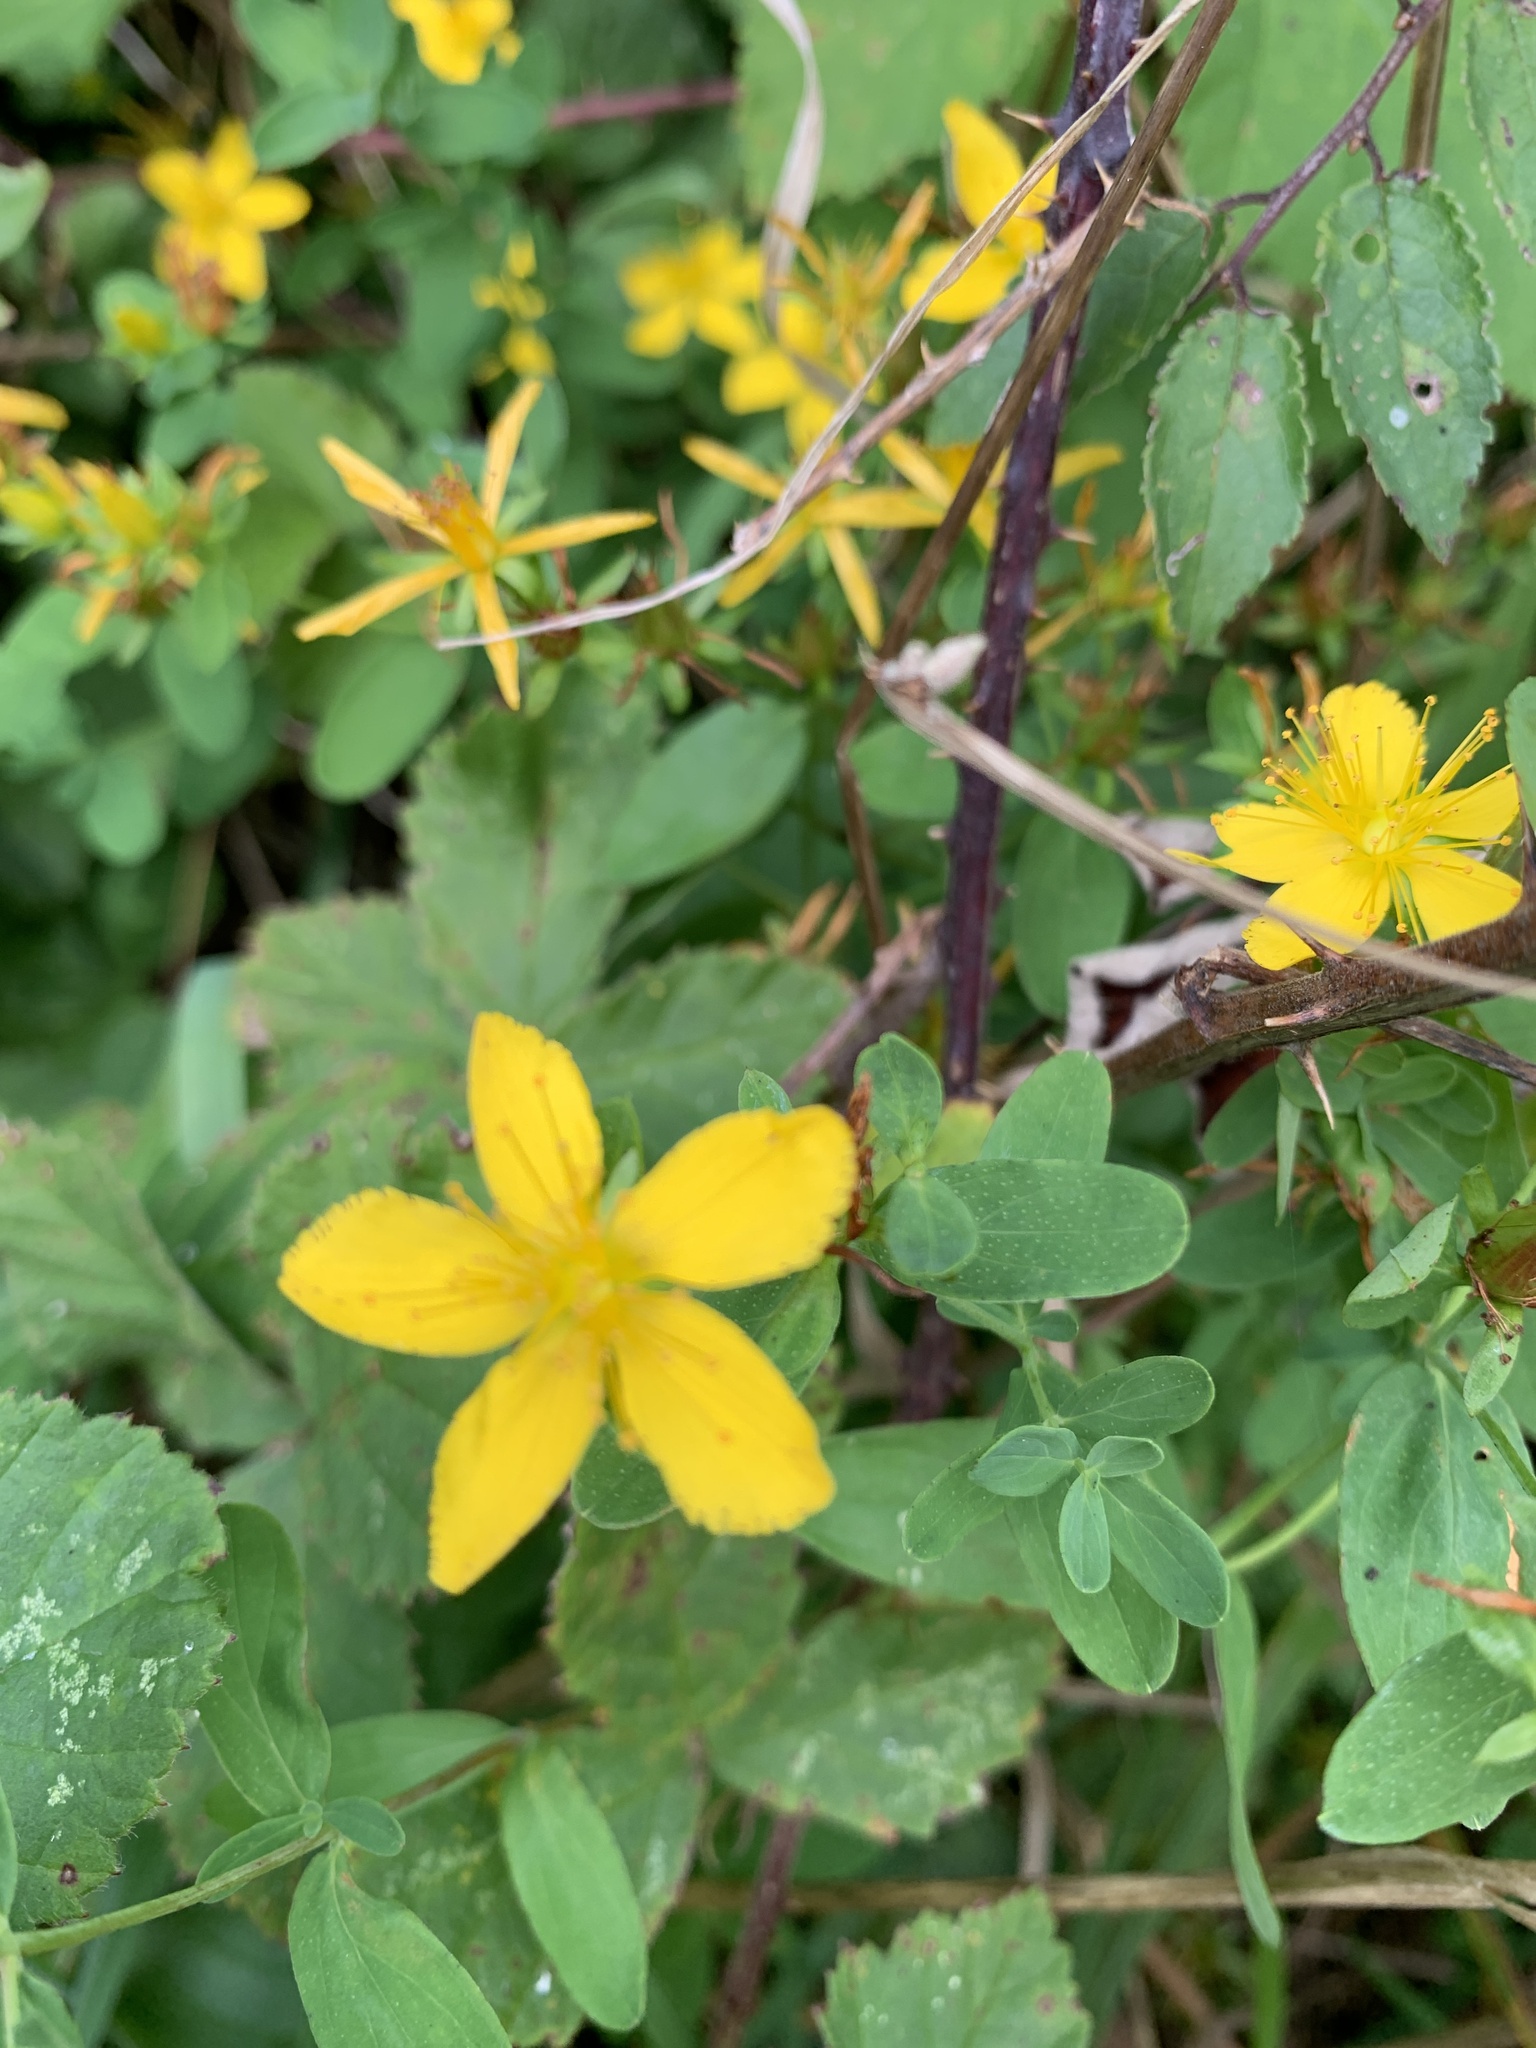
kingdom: Plantae
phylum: Tracheophyta
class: Magnoliopsida
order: Malpighiales
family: Hypericaceae
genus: Hypericum
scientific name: Hypericum perforatum
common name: Common st. johnswort
